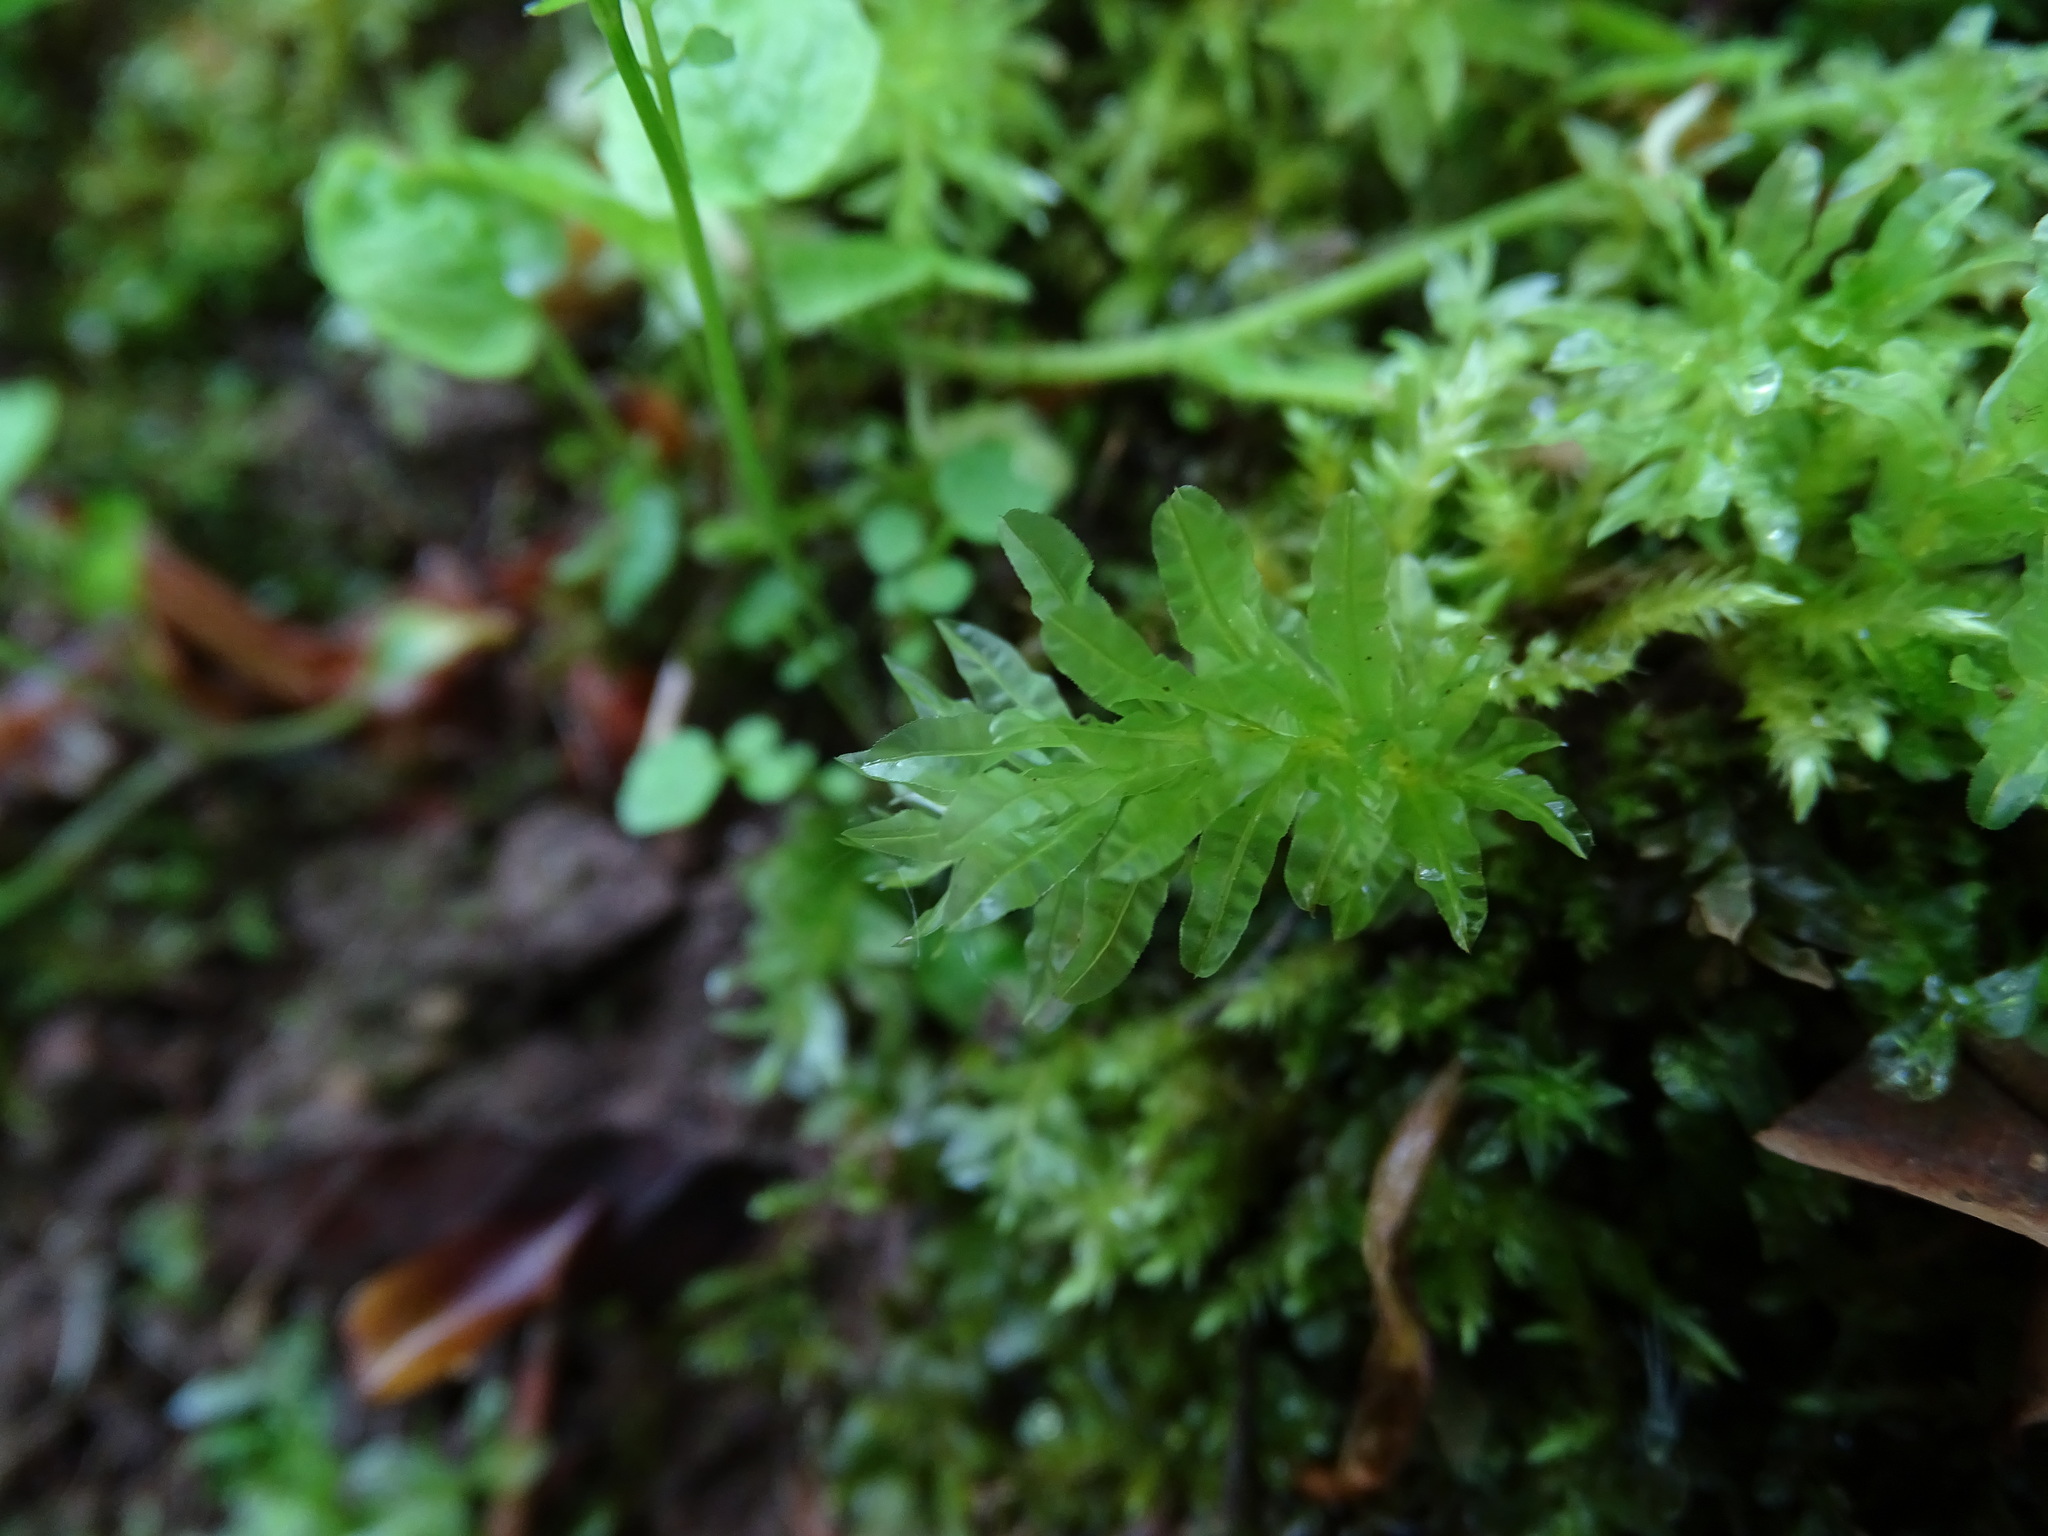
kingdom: Plantae
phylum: Bryophyta
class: Bryopsida
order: Bryales
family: Mniaceae
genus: Plagiomnium
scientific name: Plagiomnium undulatum
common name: Hart's-tongue thyme-moss
